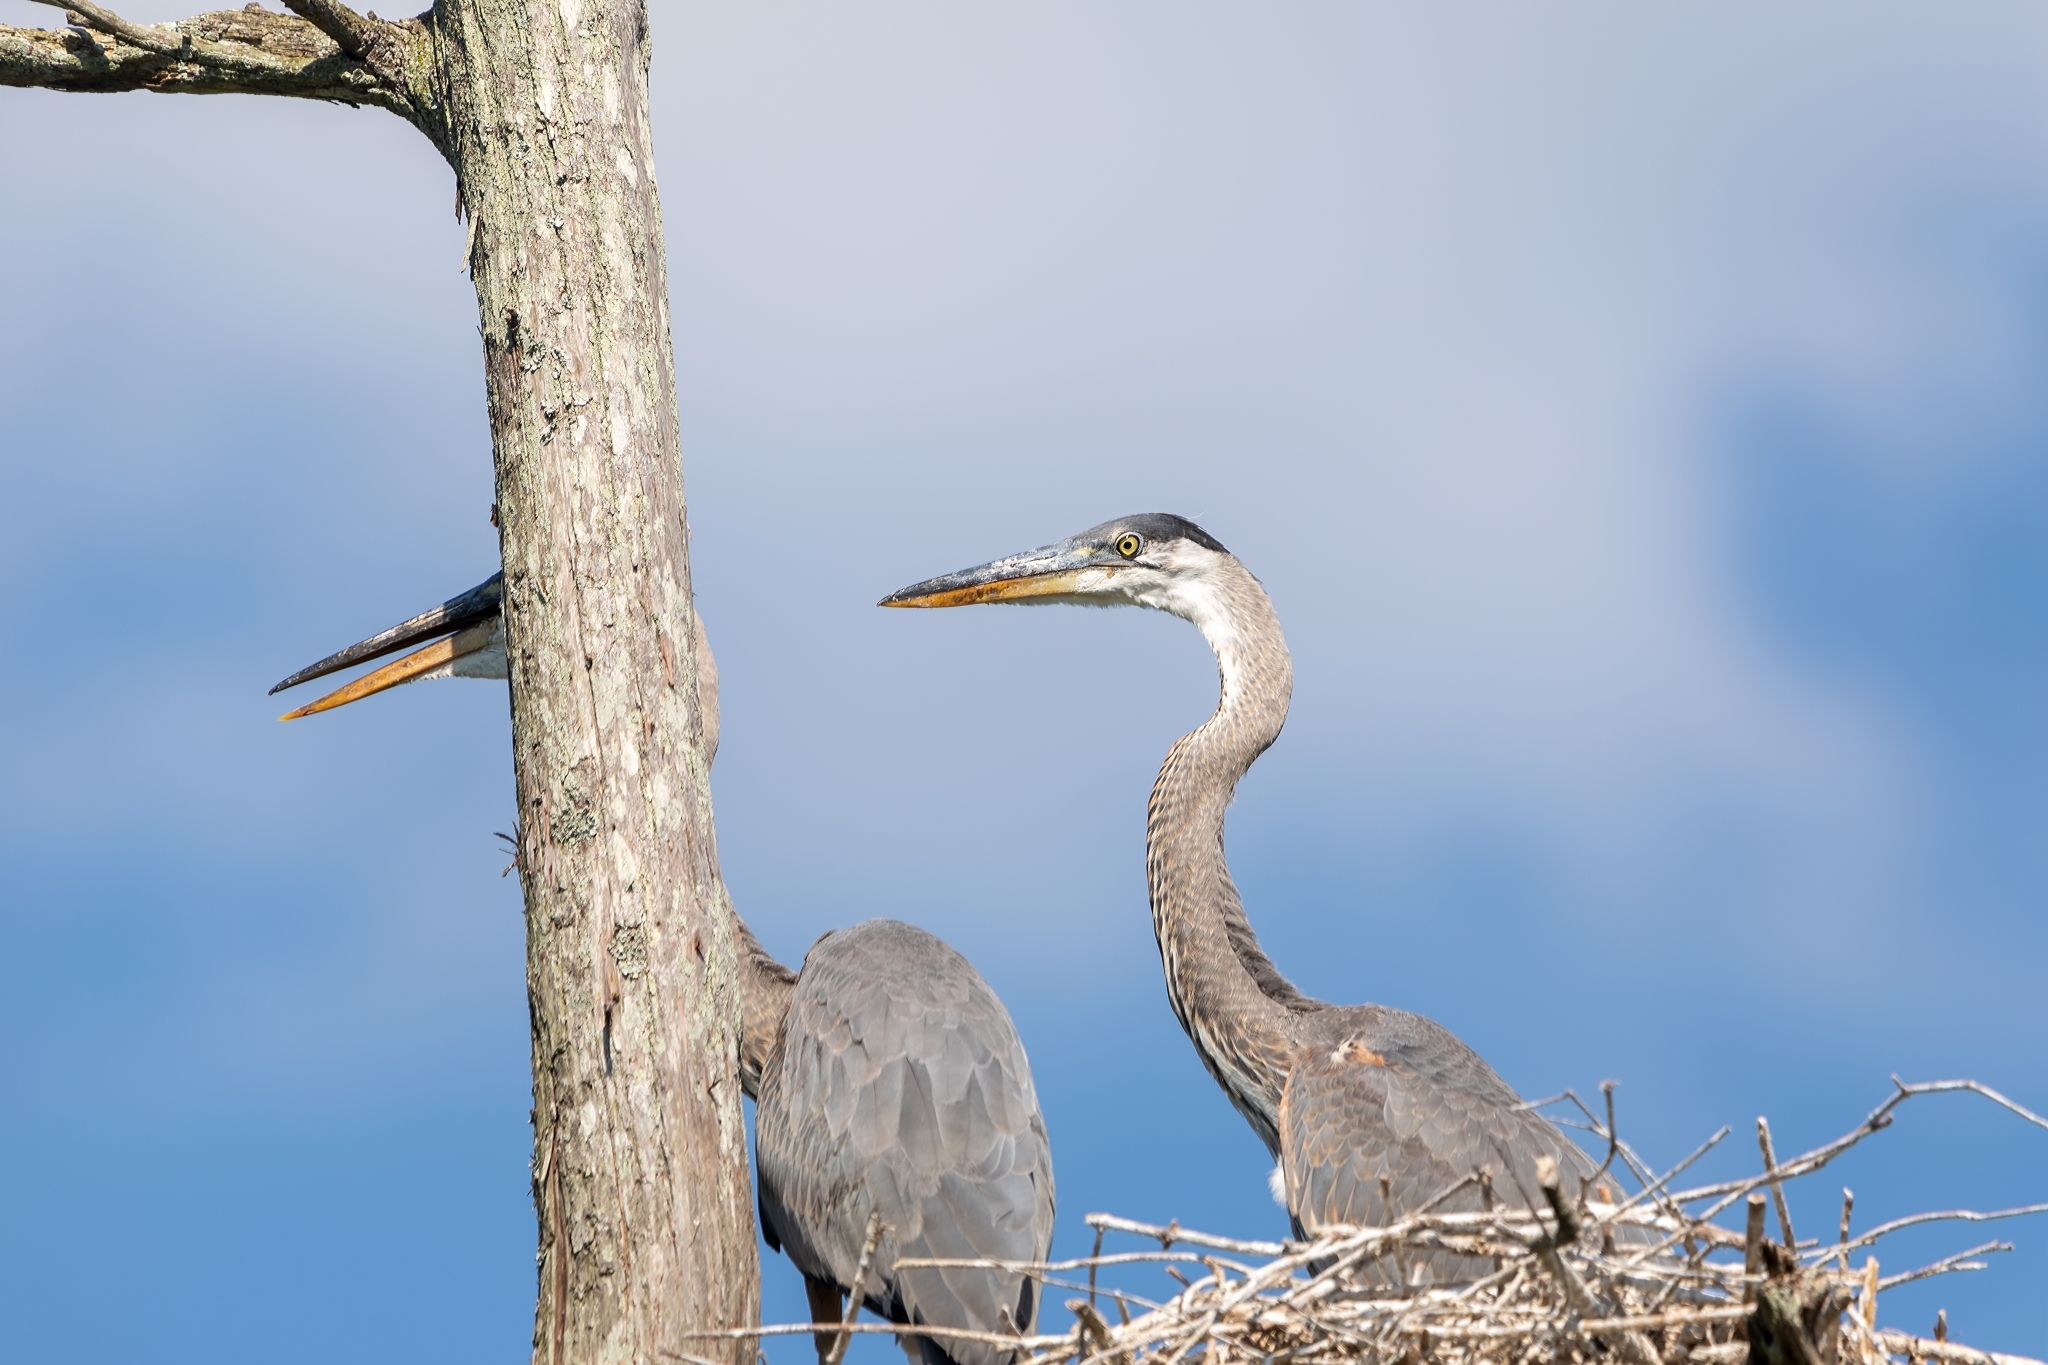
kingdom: Animalia
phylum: Chordata
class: Aves
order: Pelecaniformes
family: Ardeidae
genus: Ardea
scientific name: Ardea herodias
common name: Great blue heron
